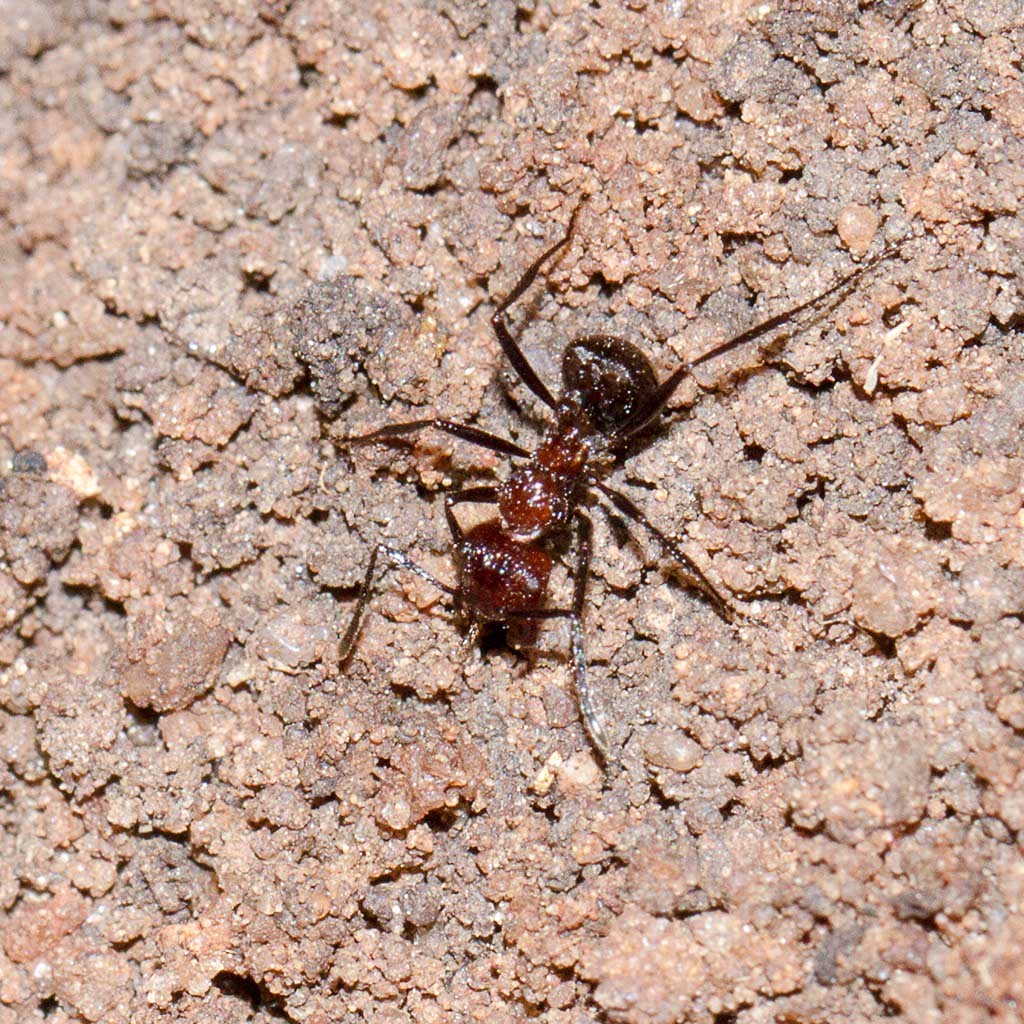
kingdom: Animalia
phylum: Arthropoda
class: Insecta
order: Hymenoptera
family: Formicidae
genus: Myrmicaria
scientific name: Myrmicaria natalensis
